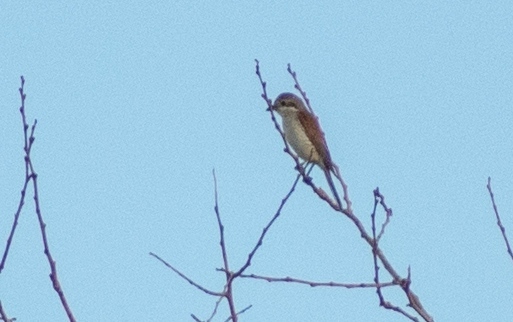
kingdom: Animalia
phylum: Chordata
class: Aves
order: Passeriformes
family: Laniidae
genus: Lanius
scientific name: Lanius collurio
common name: Red-backed shrike
